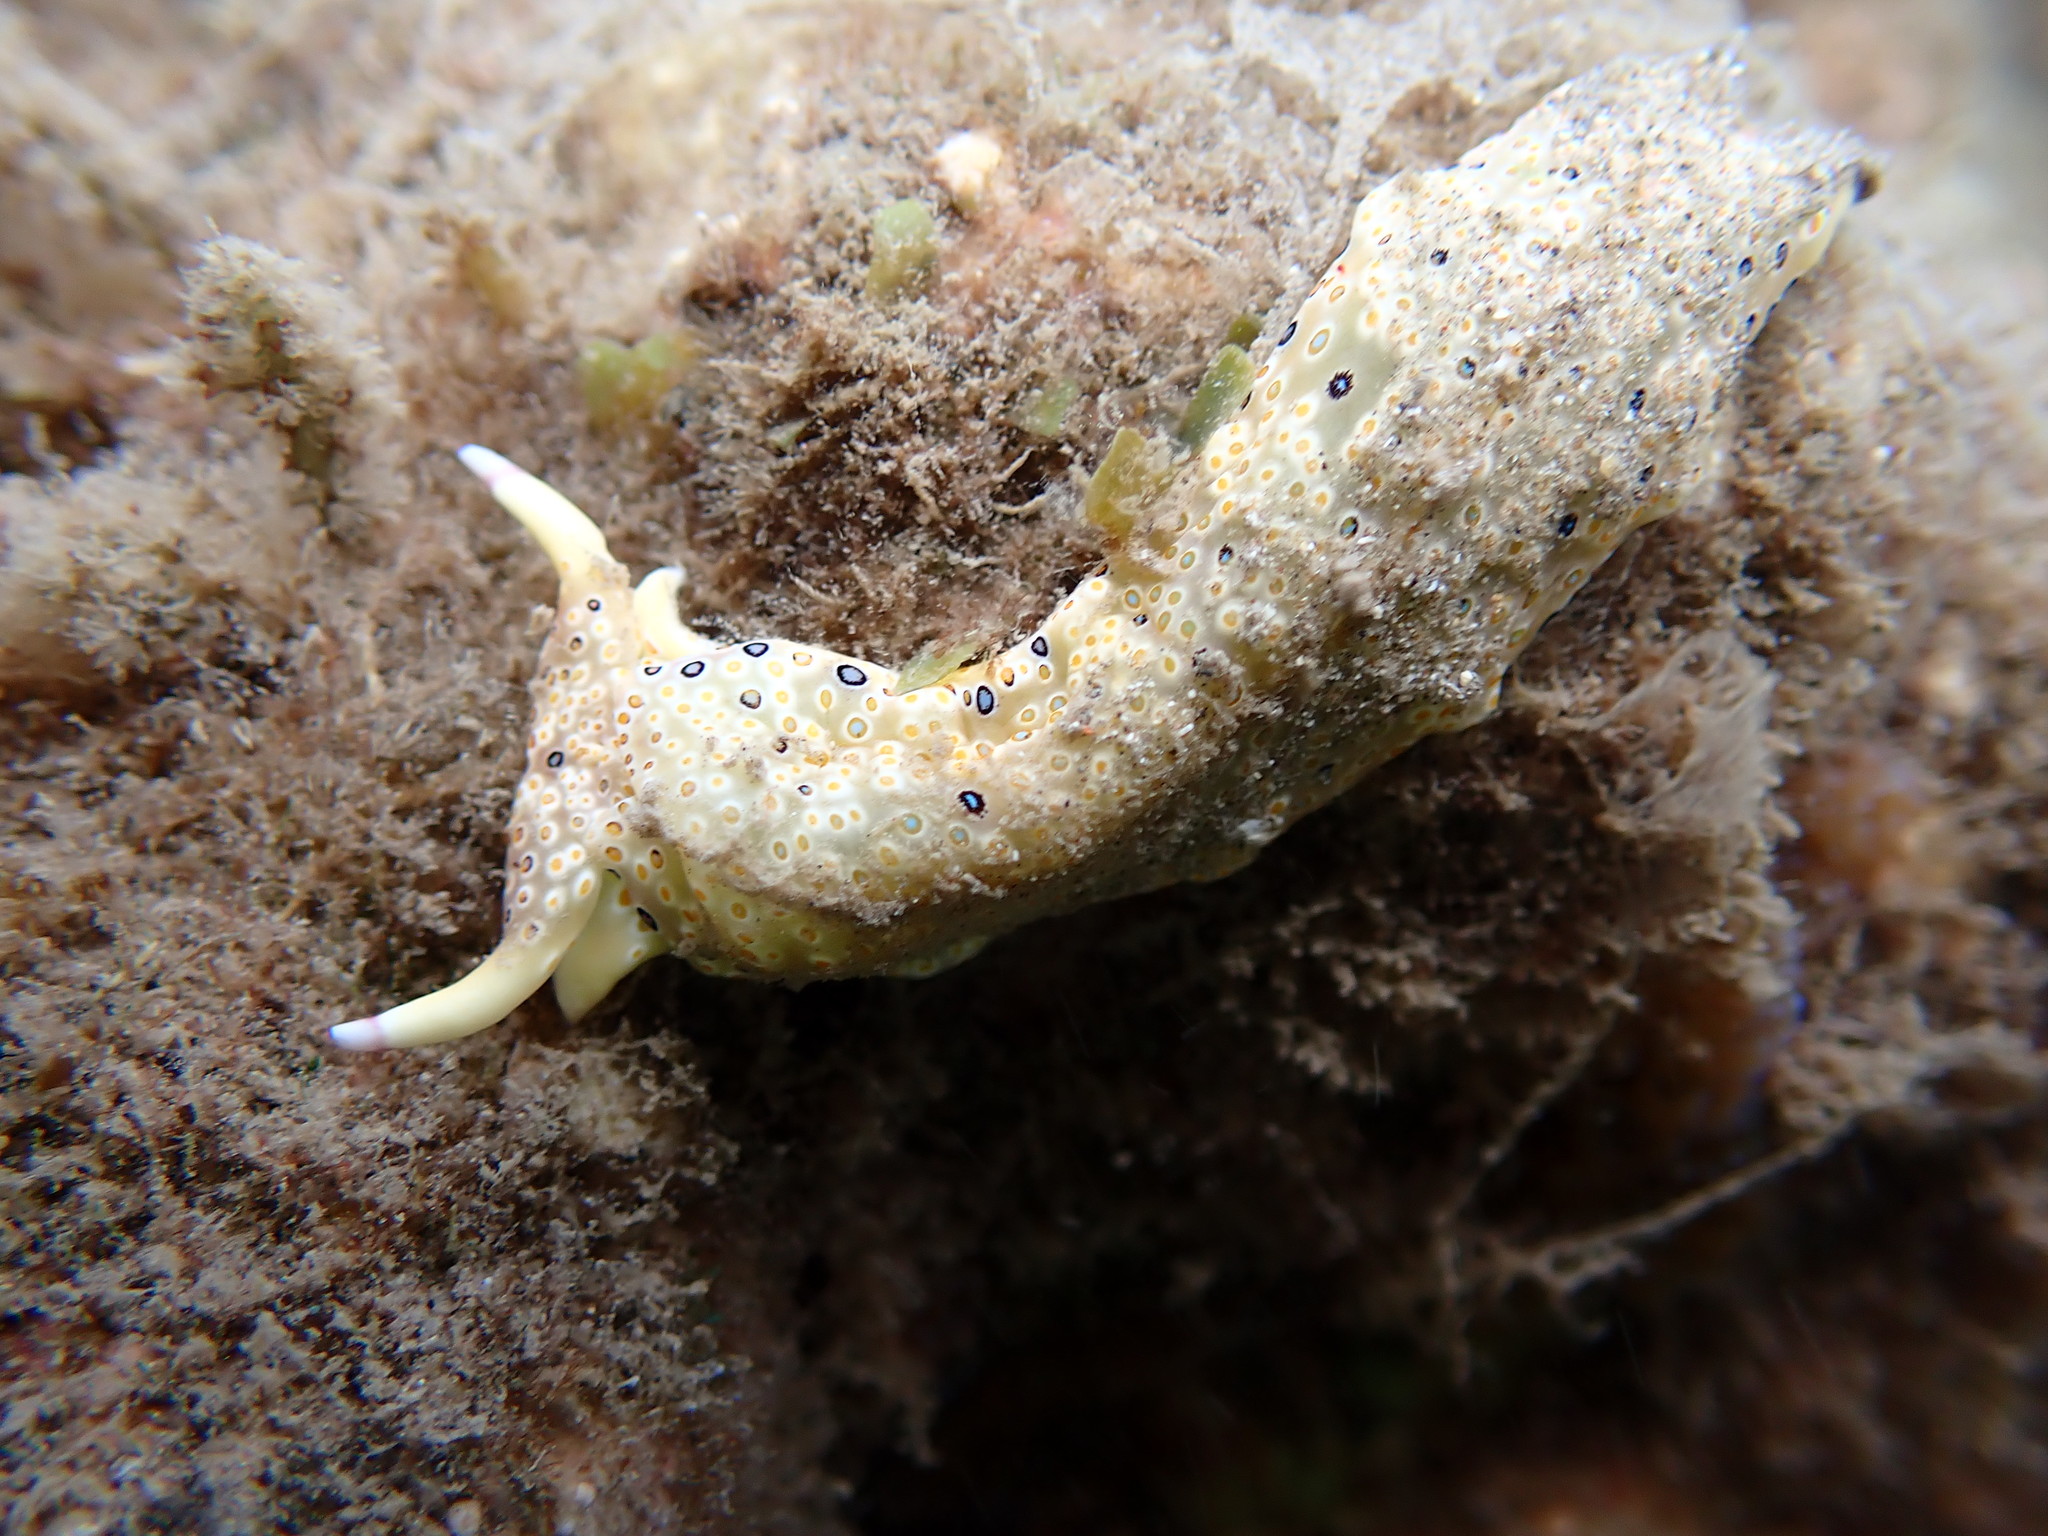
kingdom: Animalia
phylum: Mollusca
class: Gastropoda
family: Plakobranchidae
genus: Plakobranchus
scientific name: Plakobranchus ocellatus
